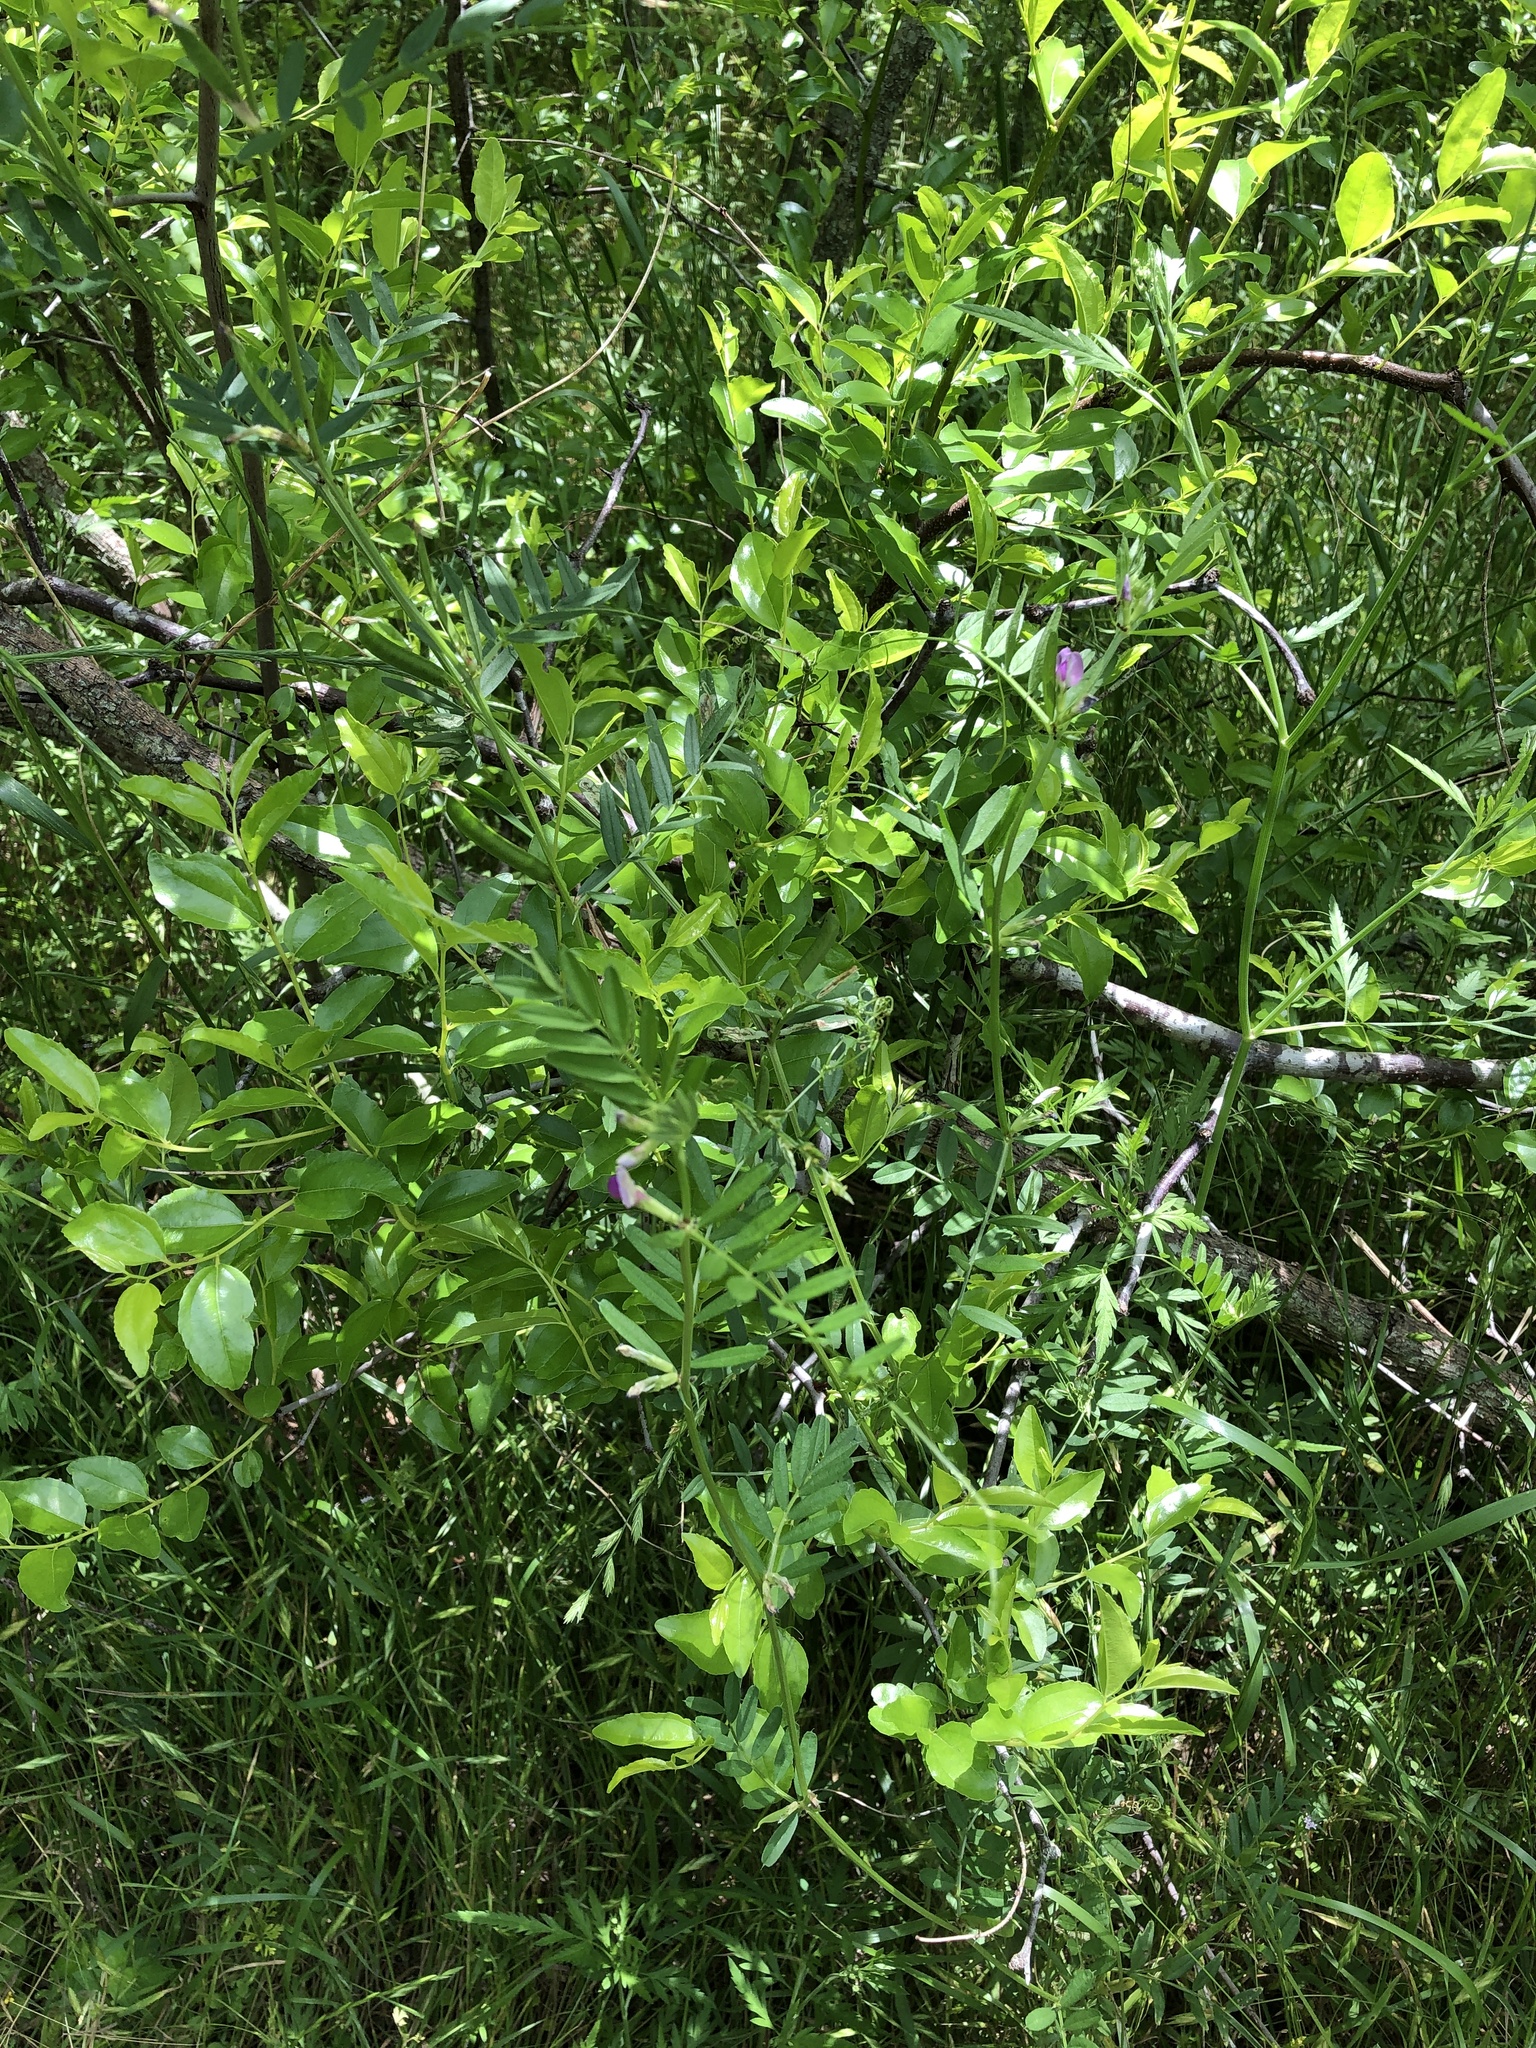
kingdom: Plantae
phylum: Tracheophyta
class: Magnoliopsida
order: Fabales
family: Fabaceae
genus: Vicia
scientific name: Vicia sativa
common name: Garden vetch
